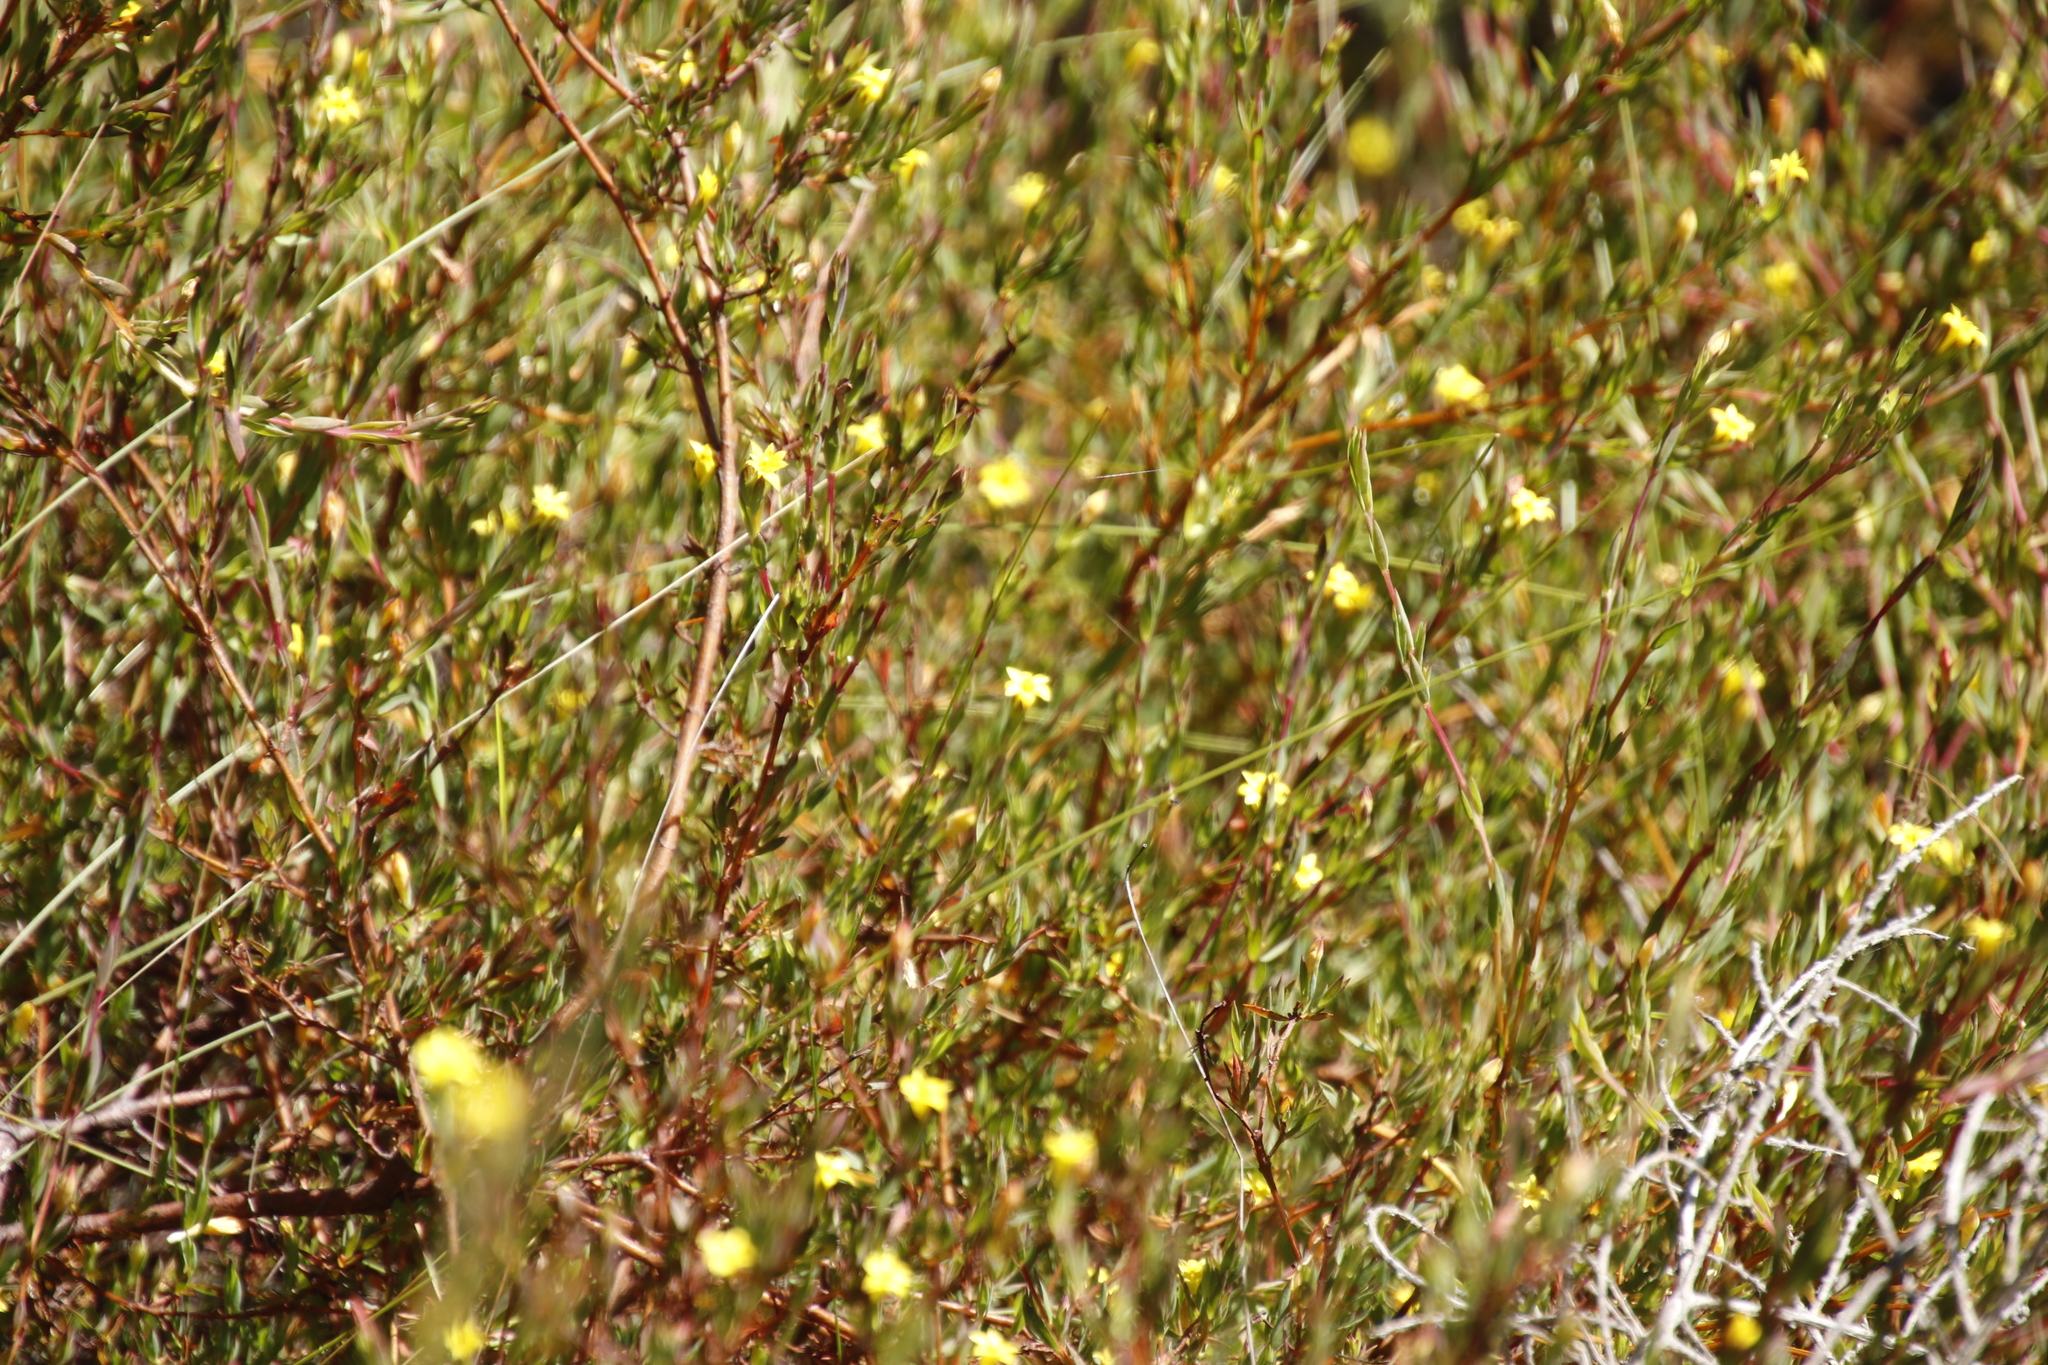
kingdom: Plantae
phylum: Tracheophyta
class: Magnoliopsida
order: Malvales
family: Thymelaeaceae
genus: Gnidia
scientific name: Gnidia juniperifolia
